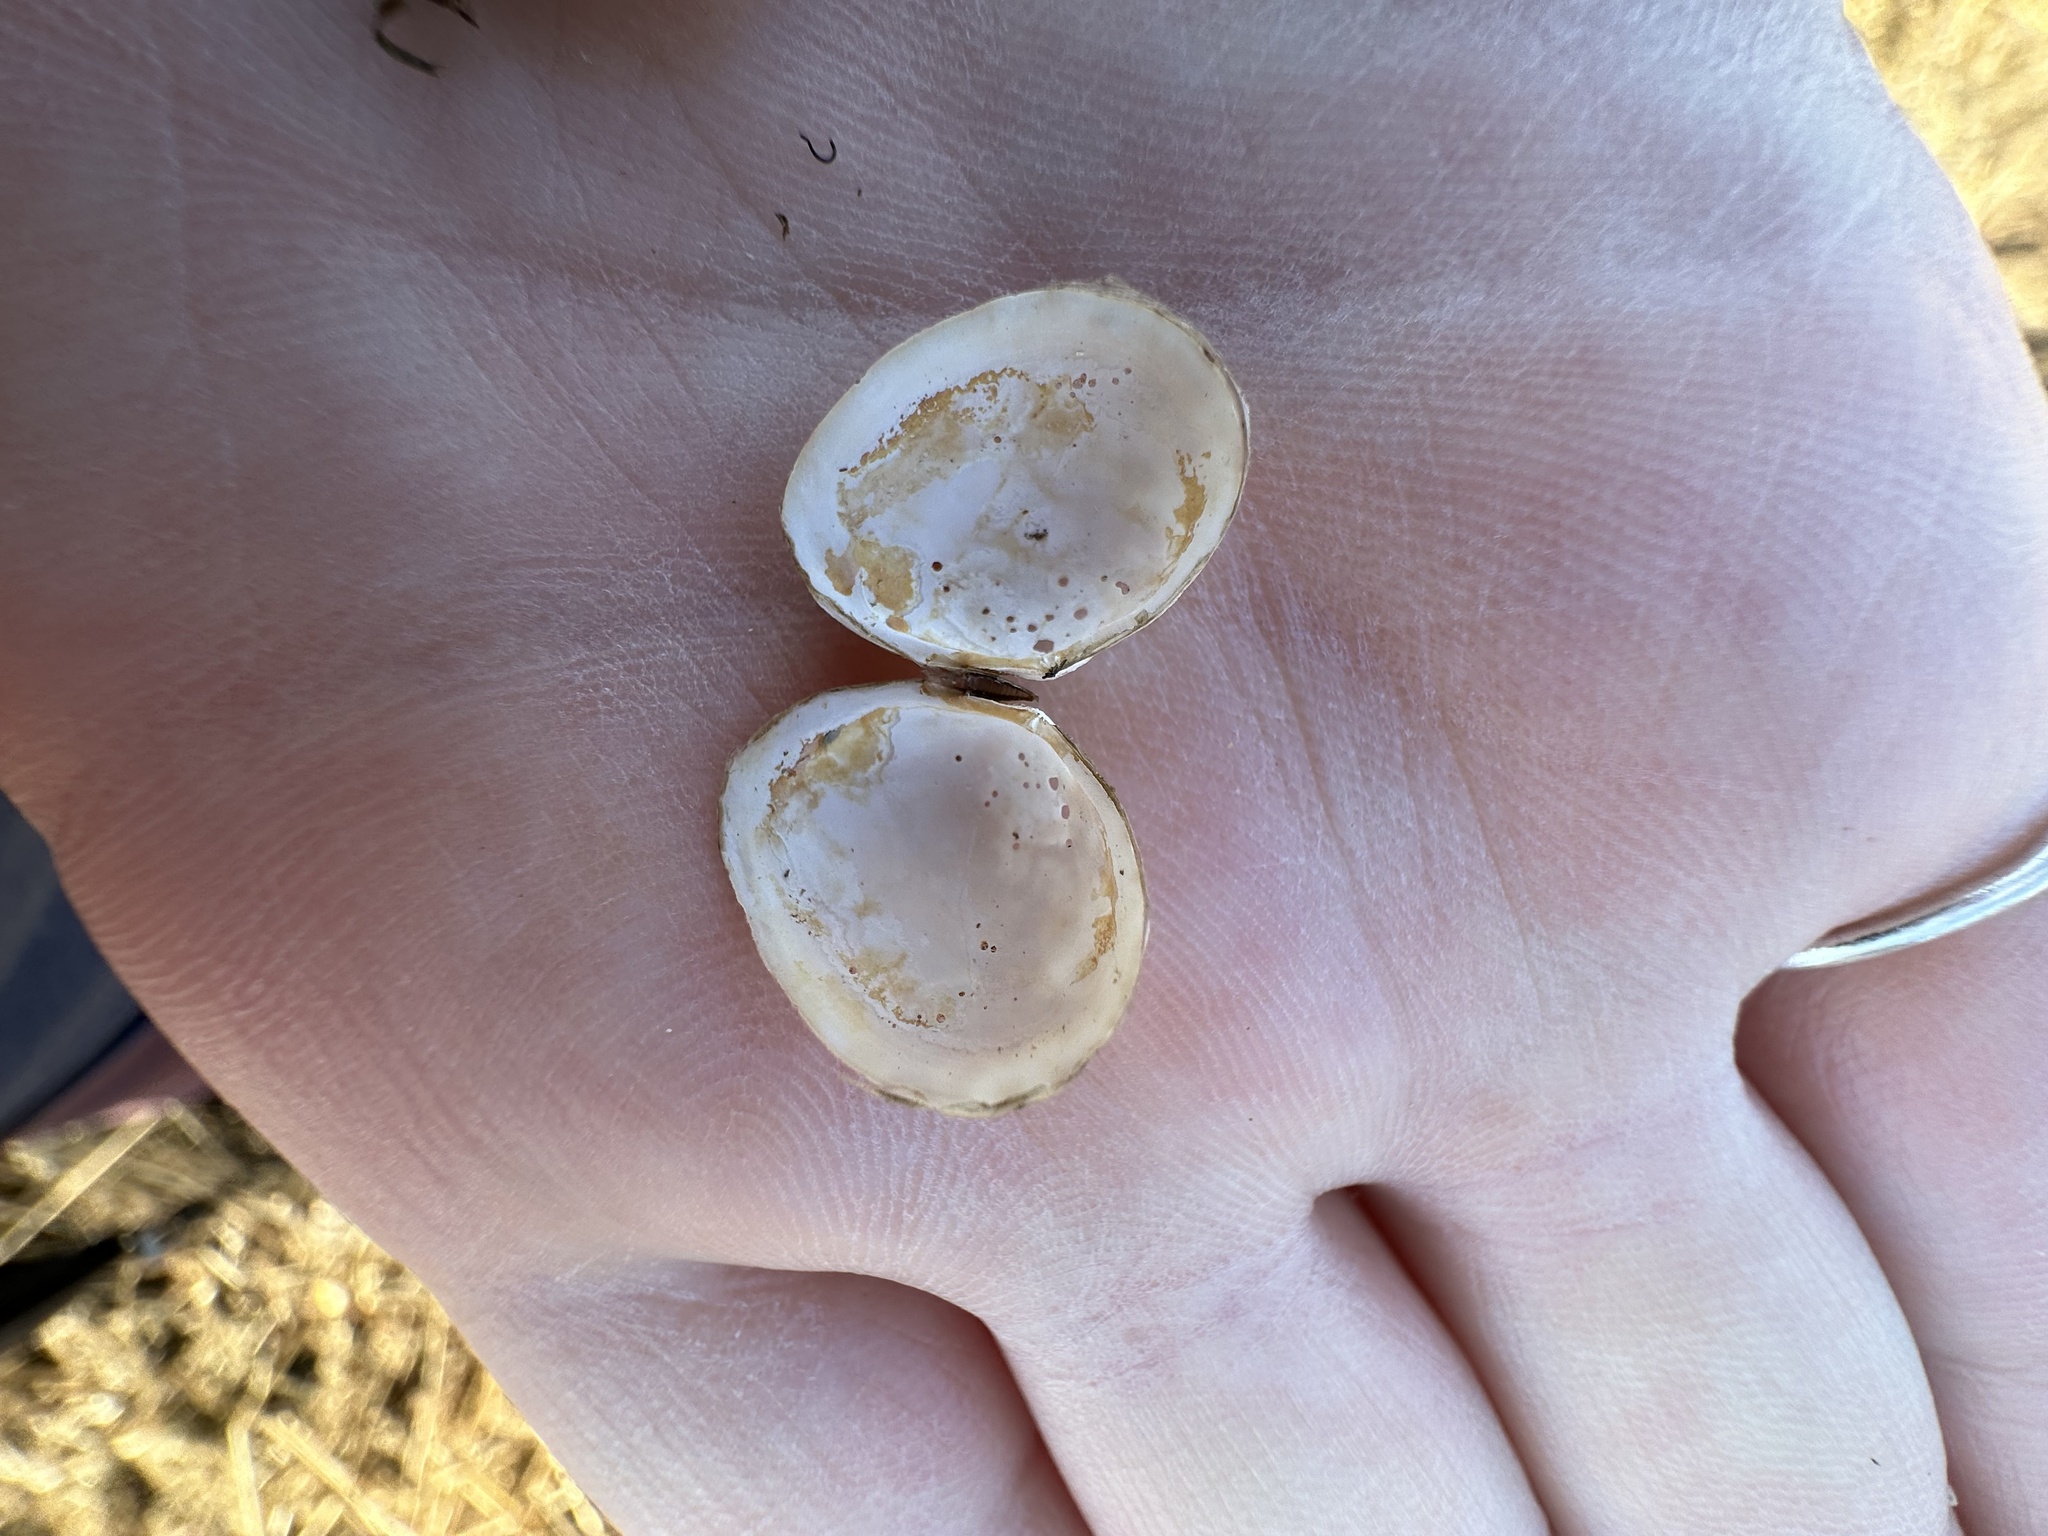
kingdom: Animalia
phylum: Mollusca
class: Bivalvia
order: Cardiida
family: Tellinidae
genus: Macoma
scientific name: Macoma petalum
